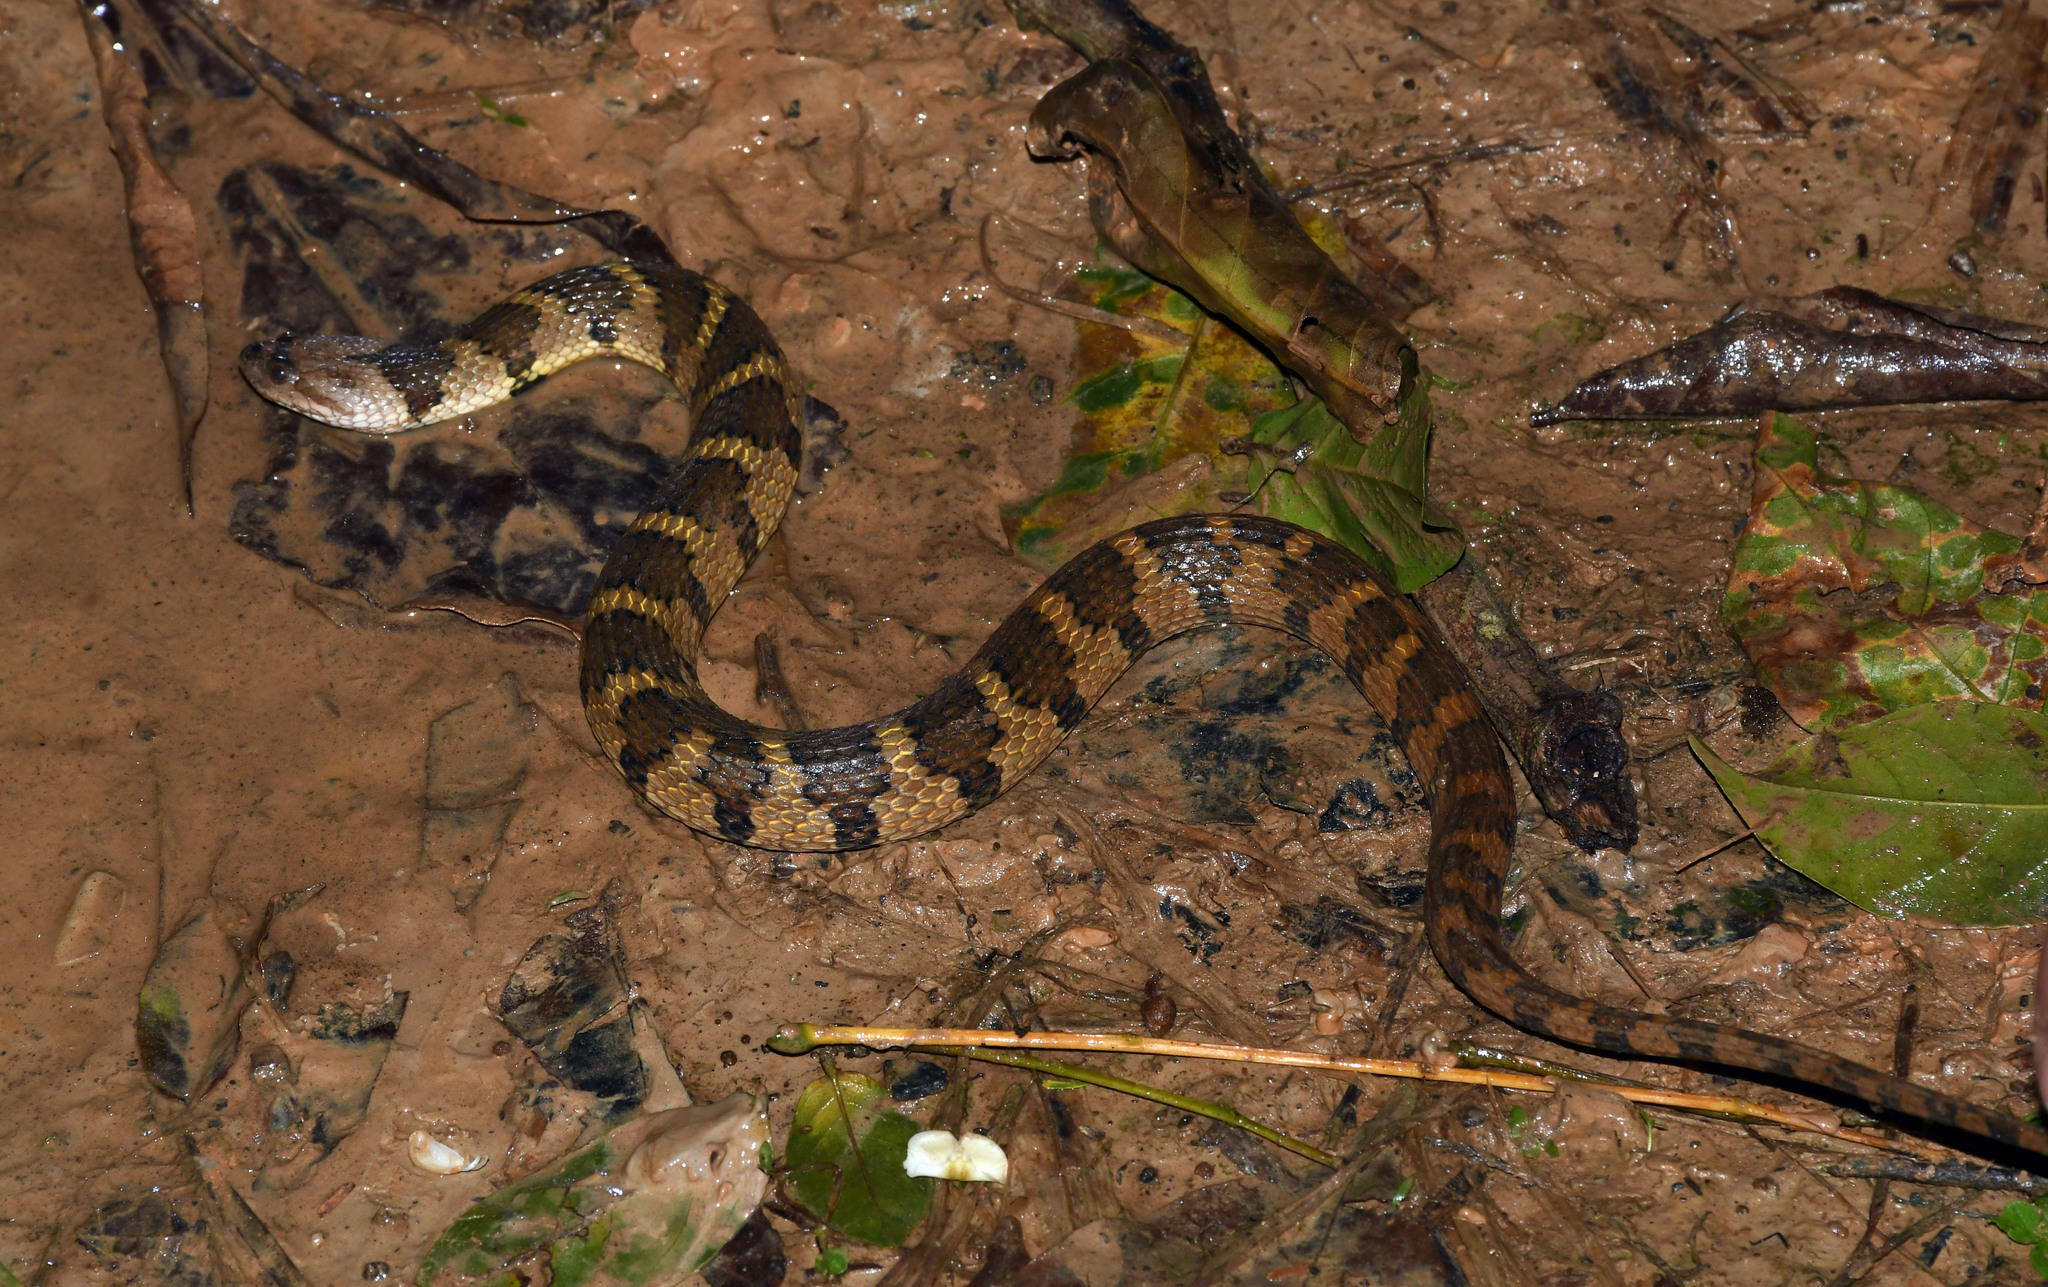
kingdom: Animalia
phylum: Chordata
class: Squamata
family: Colubridae
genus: Helicops
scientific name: Helicops angulatus
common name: Mountain keelback
